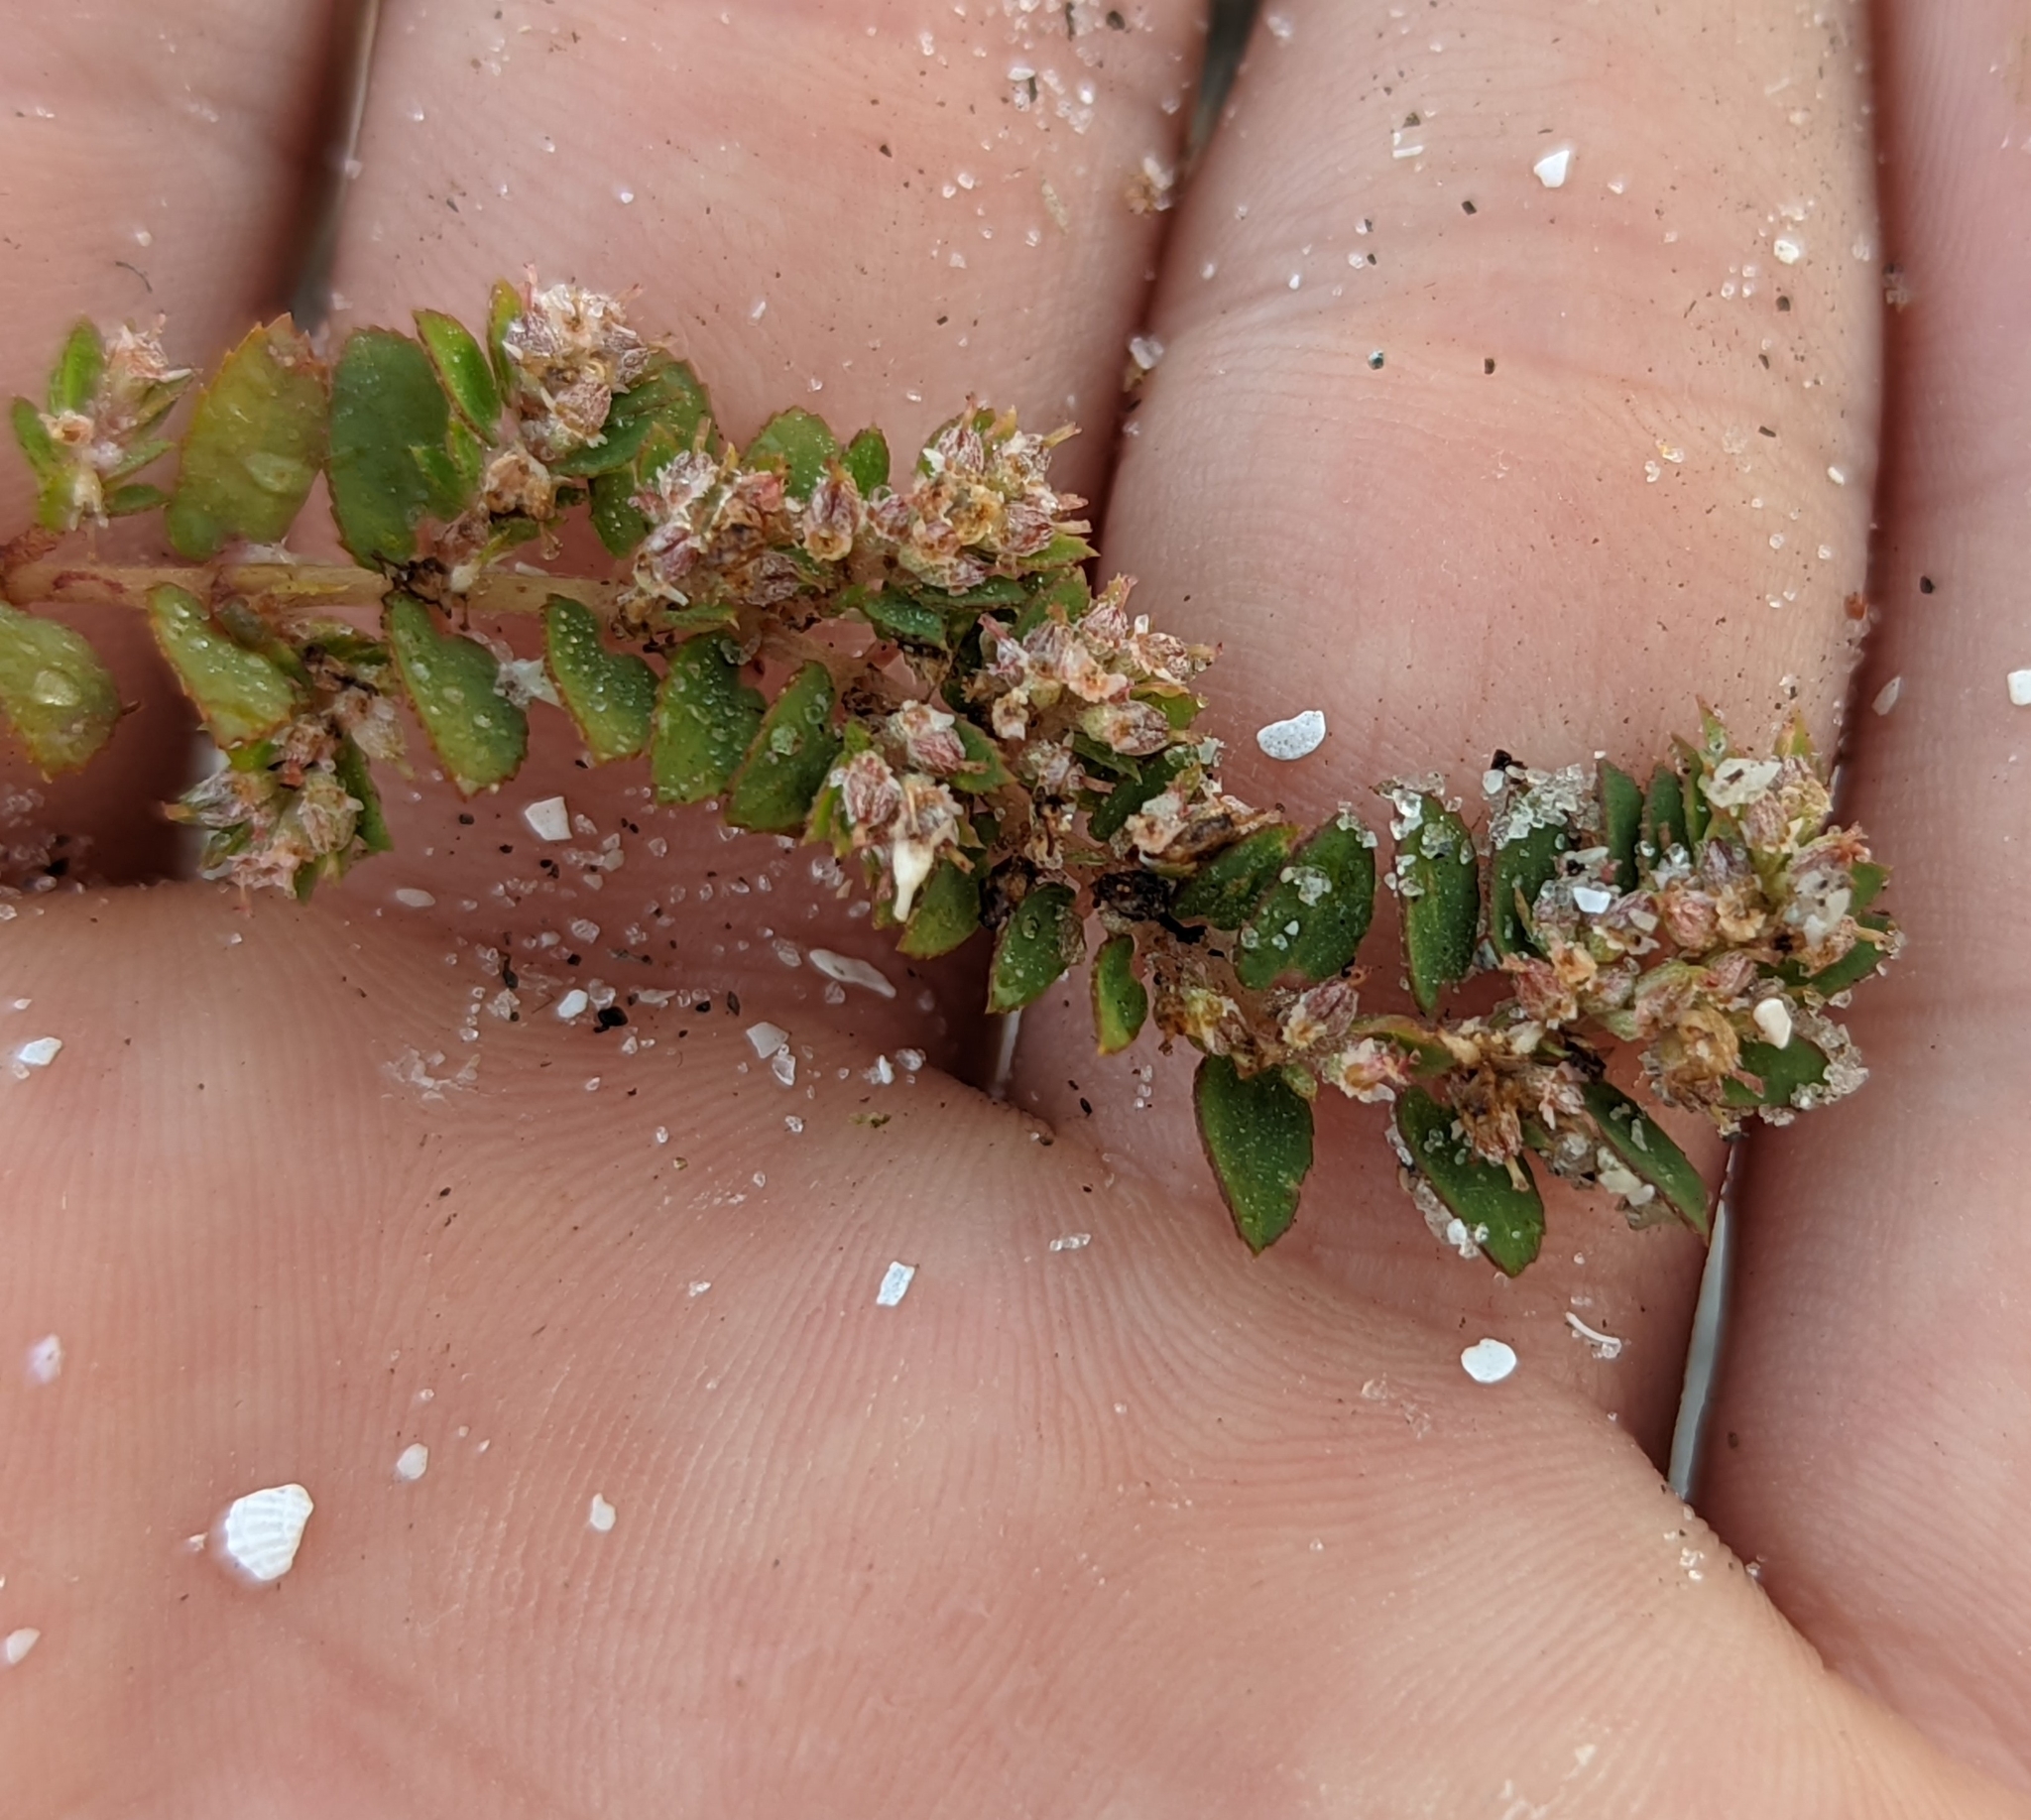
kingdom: Plantae
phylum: Tracheophyta
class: Magnoliopsida
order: Malpighiales
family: Euphorbiaceae
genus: Euphorbia
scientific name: Euphorbia thymifolia
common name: Gulf sandmat
